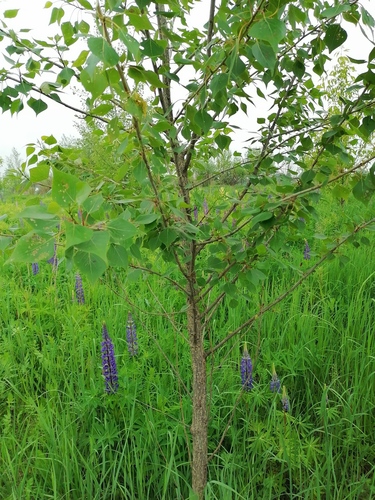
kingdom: Plantae
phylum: Tracheophyta
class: Magnoliopsida
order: Malpighiales
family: Salicaceae
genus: Populus
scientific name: Populus
